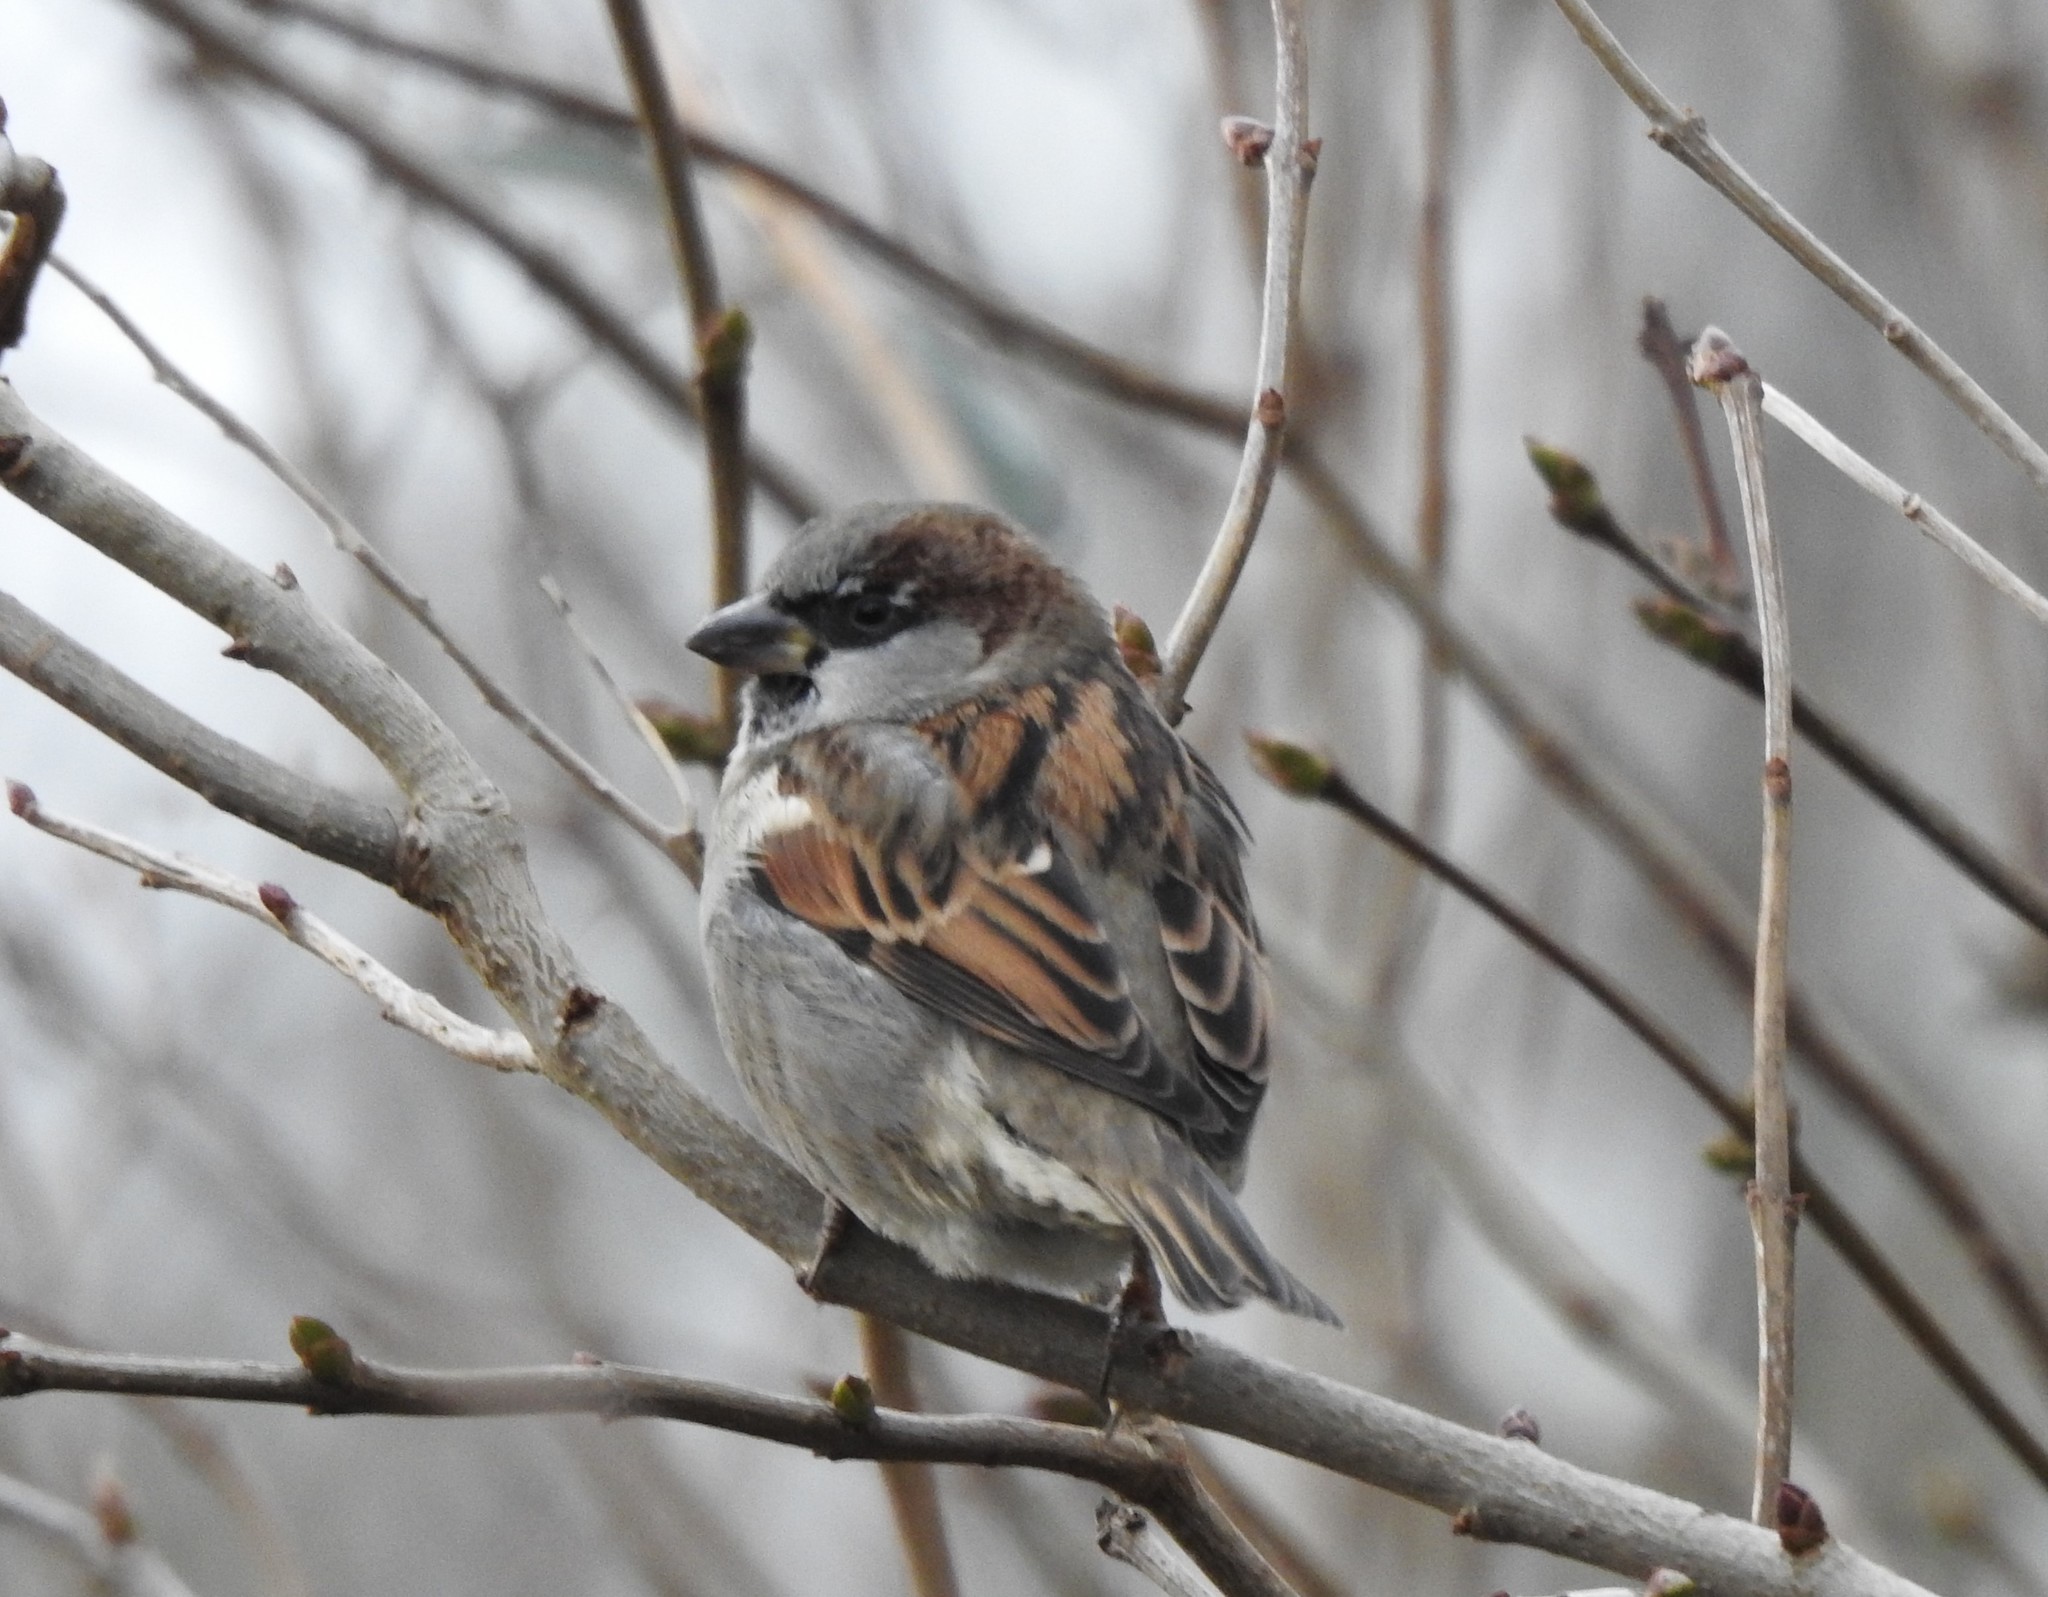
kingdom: Animalia
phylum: Chordata
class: Aves
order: Passeriformes
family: Passeridae
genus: Passer
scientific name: Passer domesticus
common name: House sparrow
